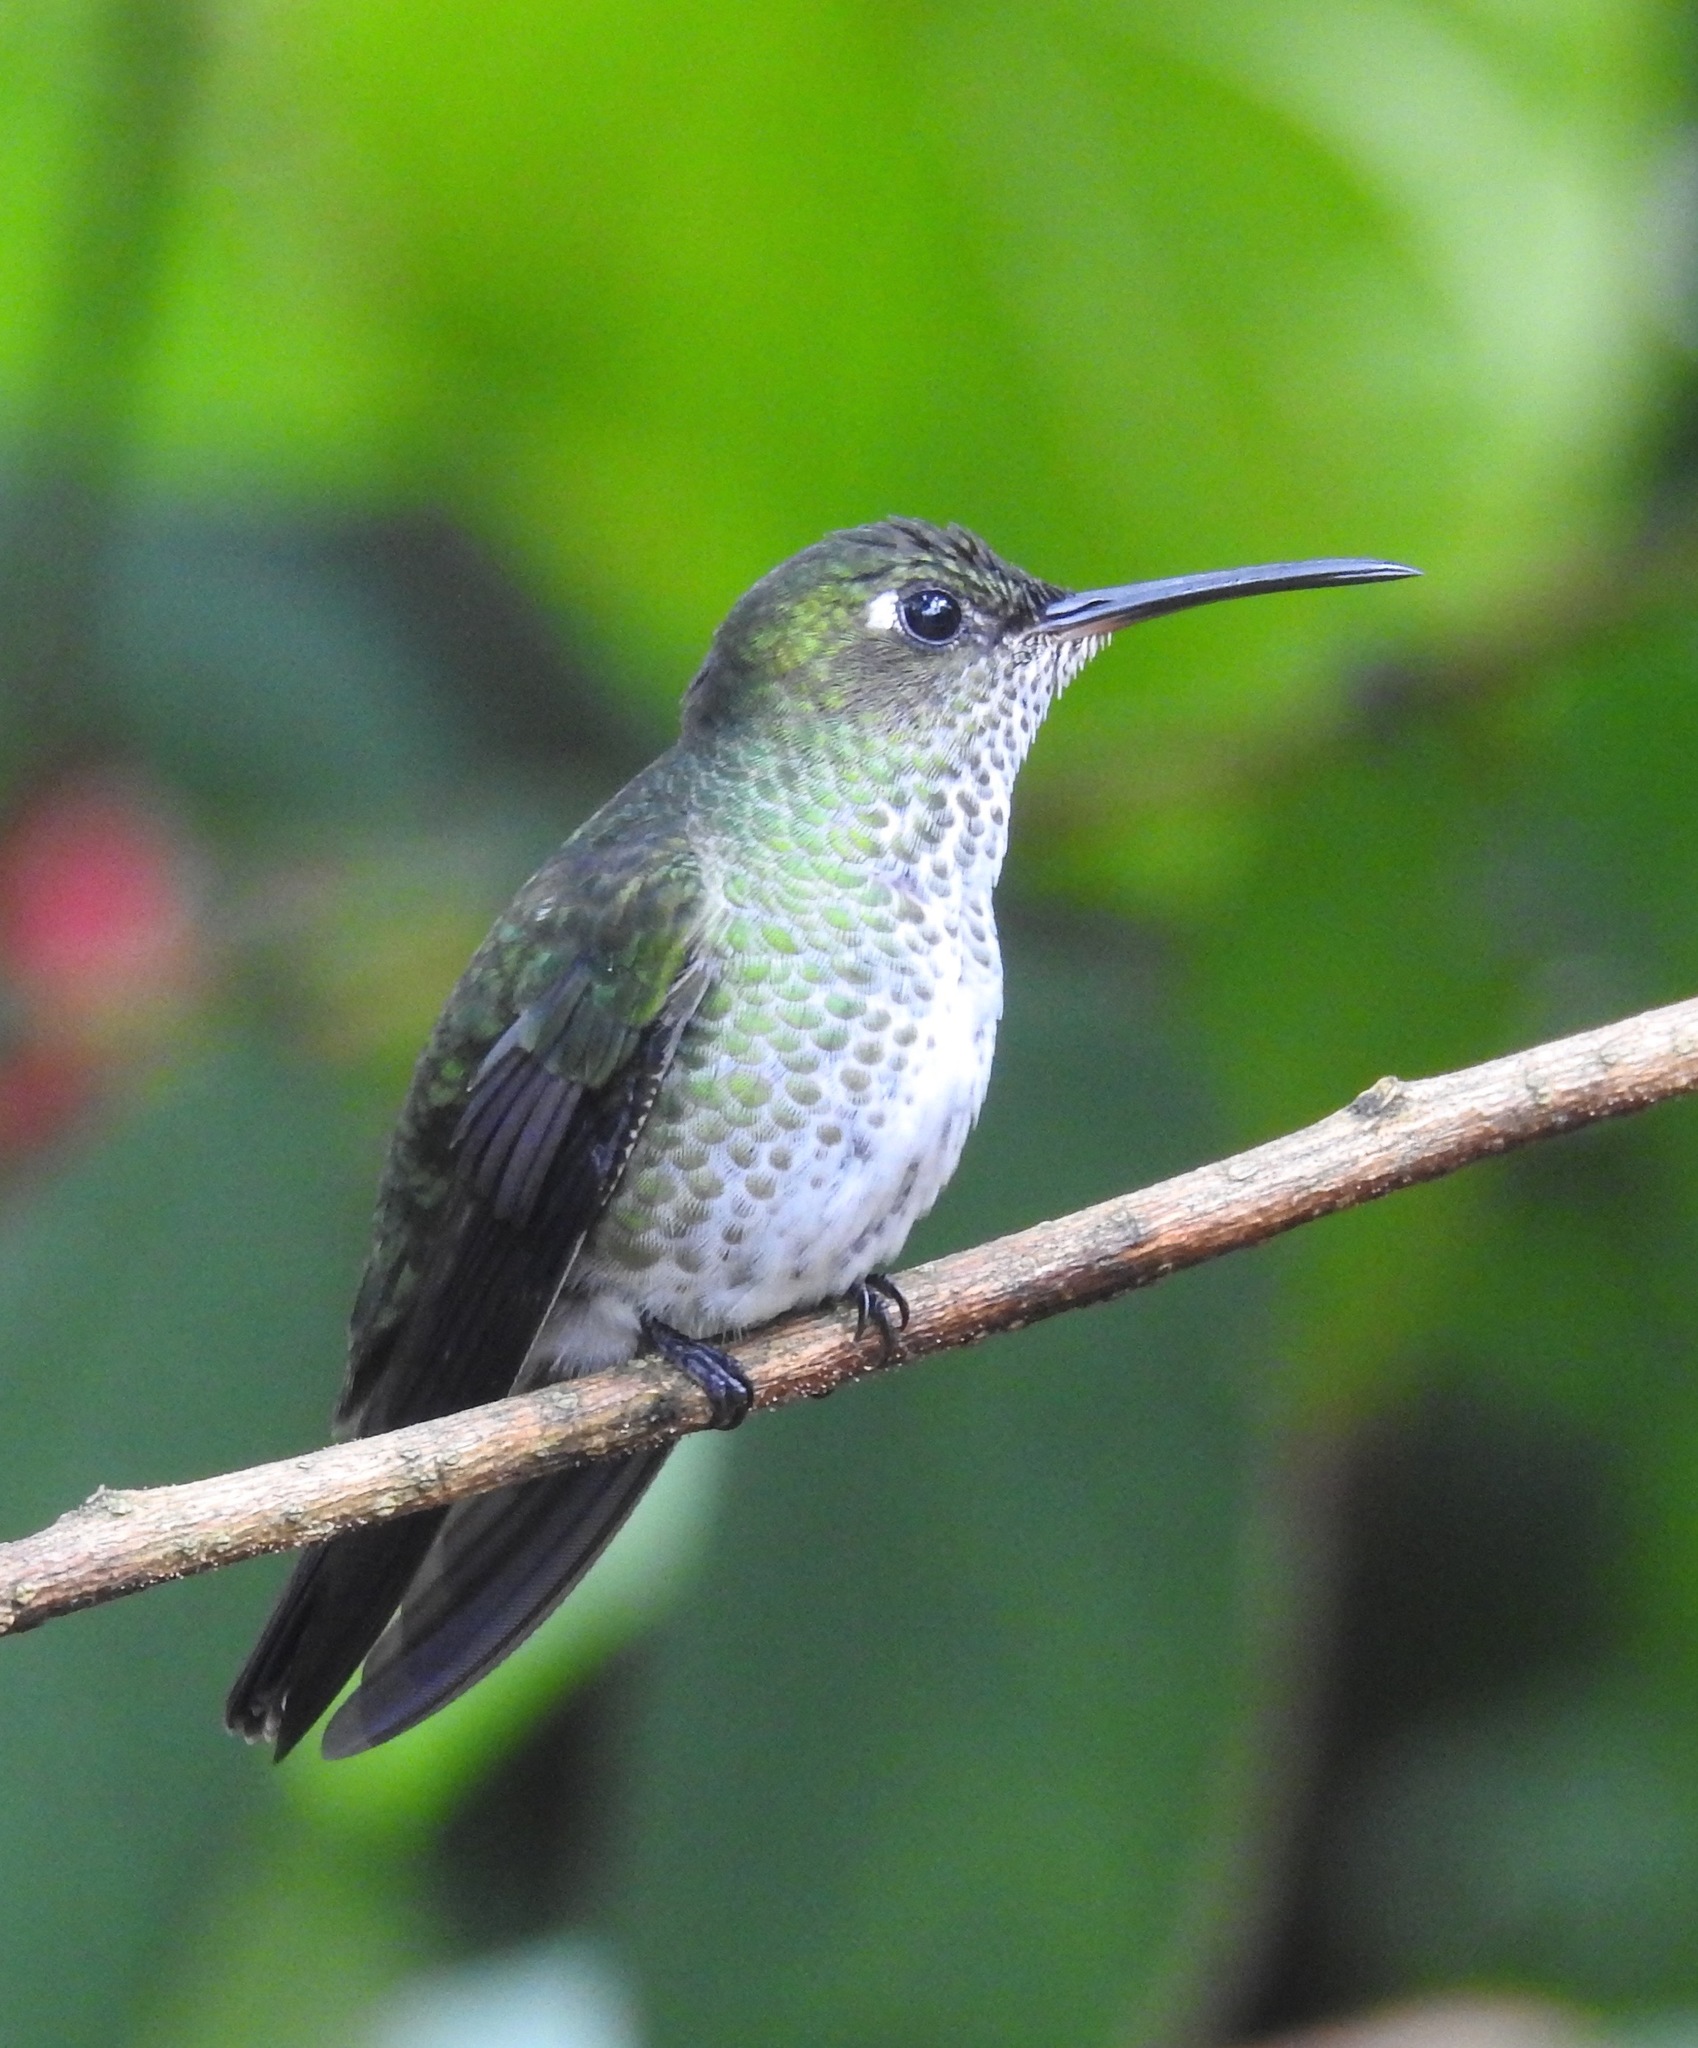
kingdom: Animalia
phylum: Chordata
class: Aves
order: Apodiformes
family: Trochilidae
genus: Taphrospilus
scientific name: Taphrospilus hypostictus
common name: Many-spotted hummingbird
